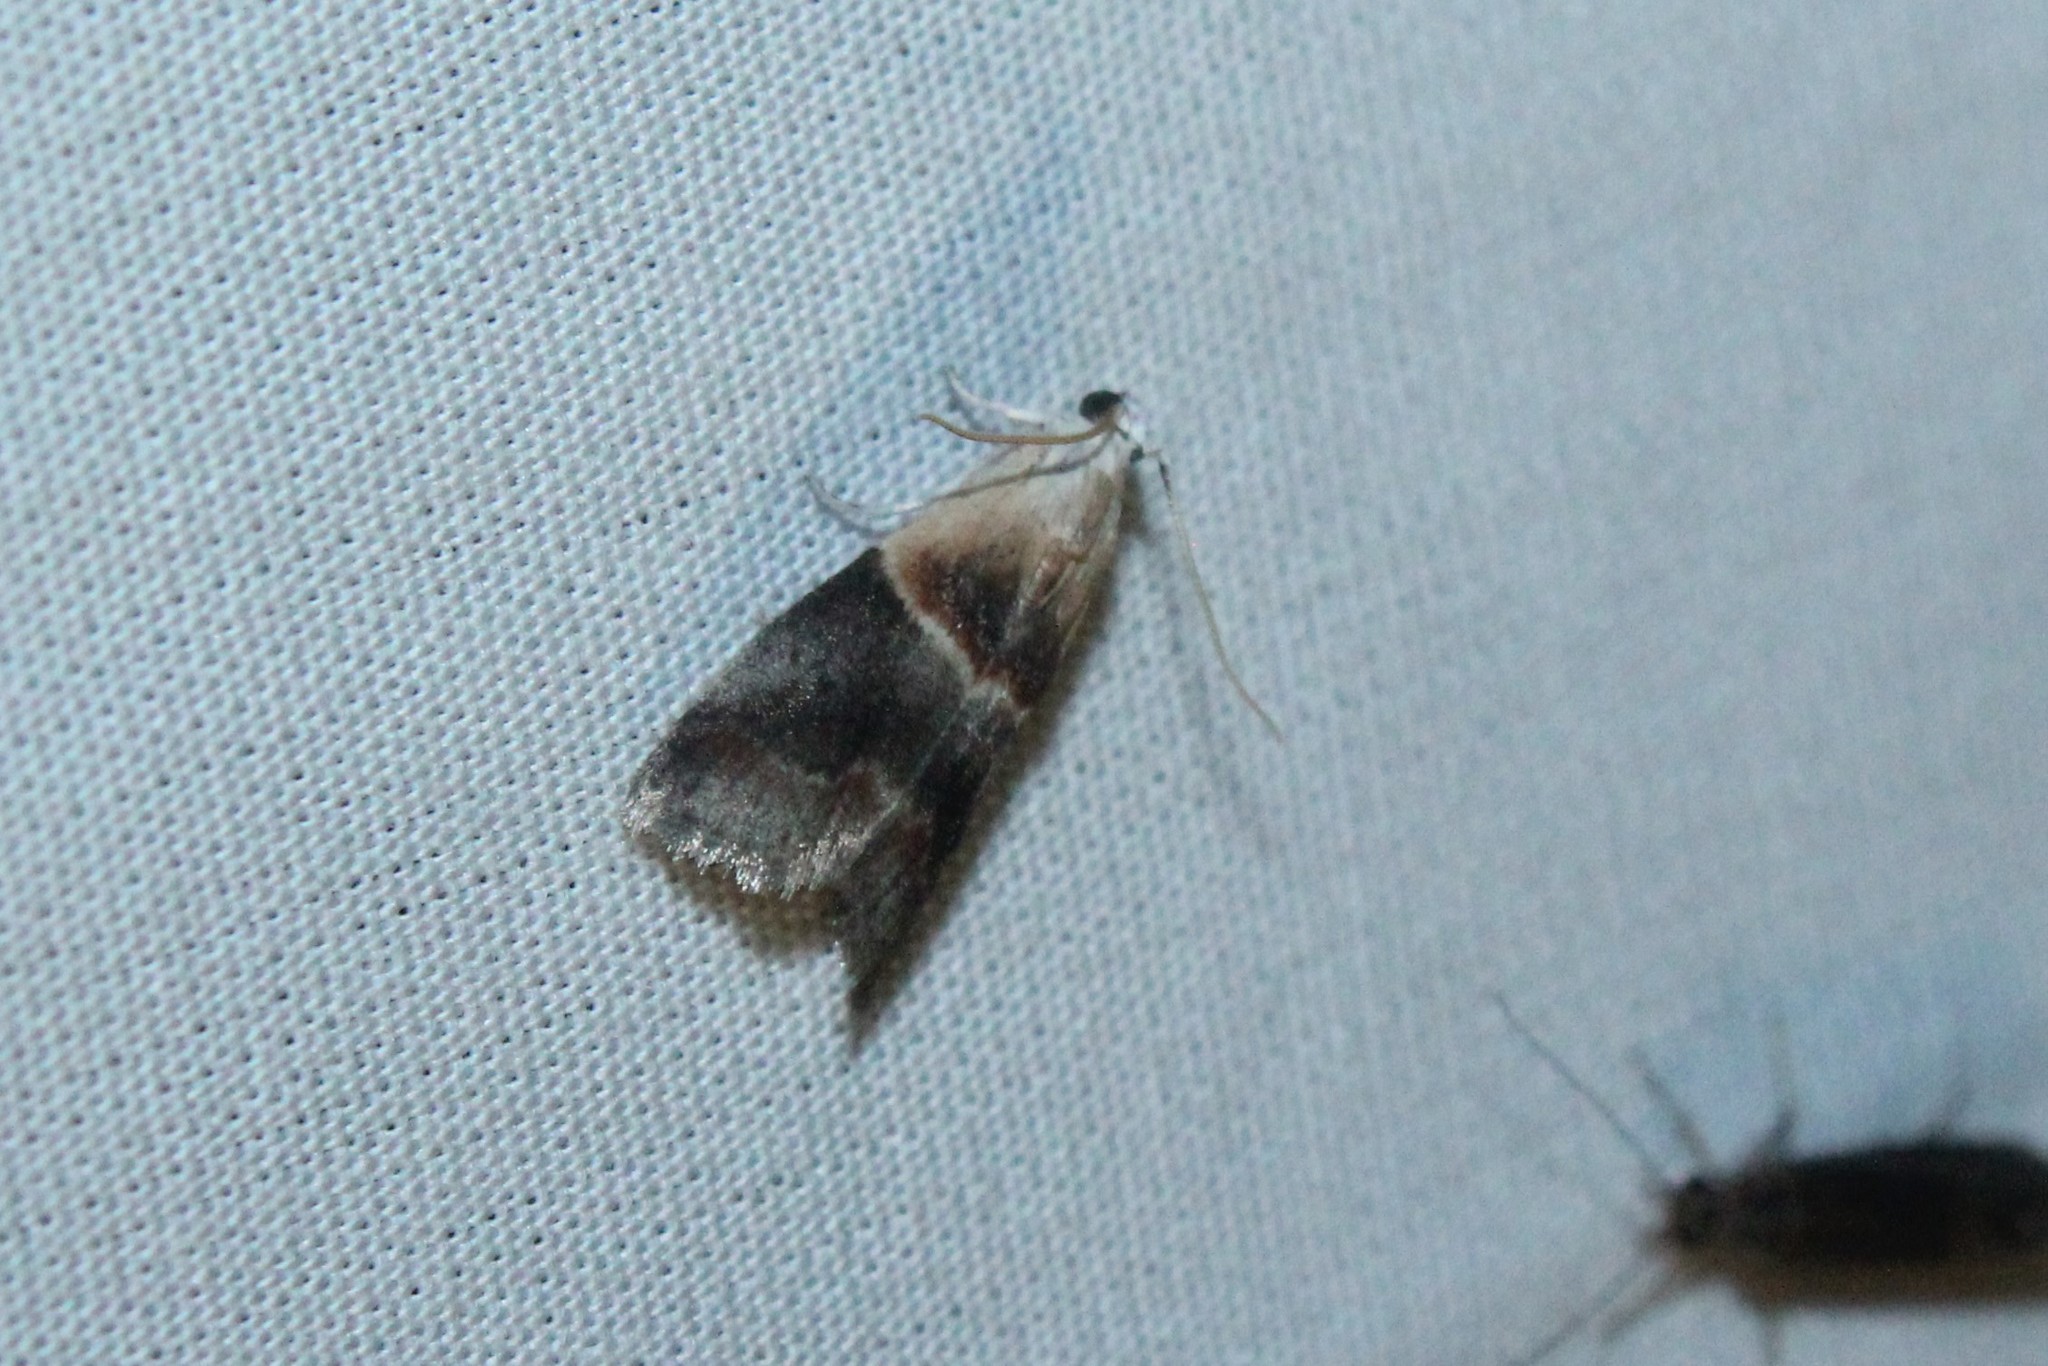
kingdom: Animalia
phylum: Arthropoda
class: Insecta
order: Lepidoptera
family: Pyralidae
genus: Acrobasis
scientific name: Acrobasis demotella
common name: Walnut shoot moth
